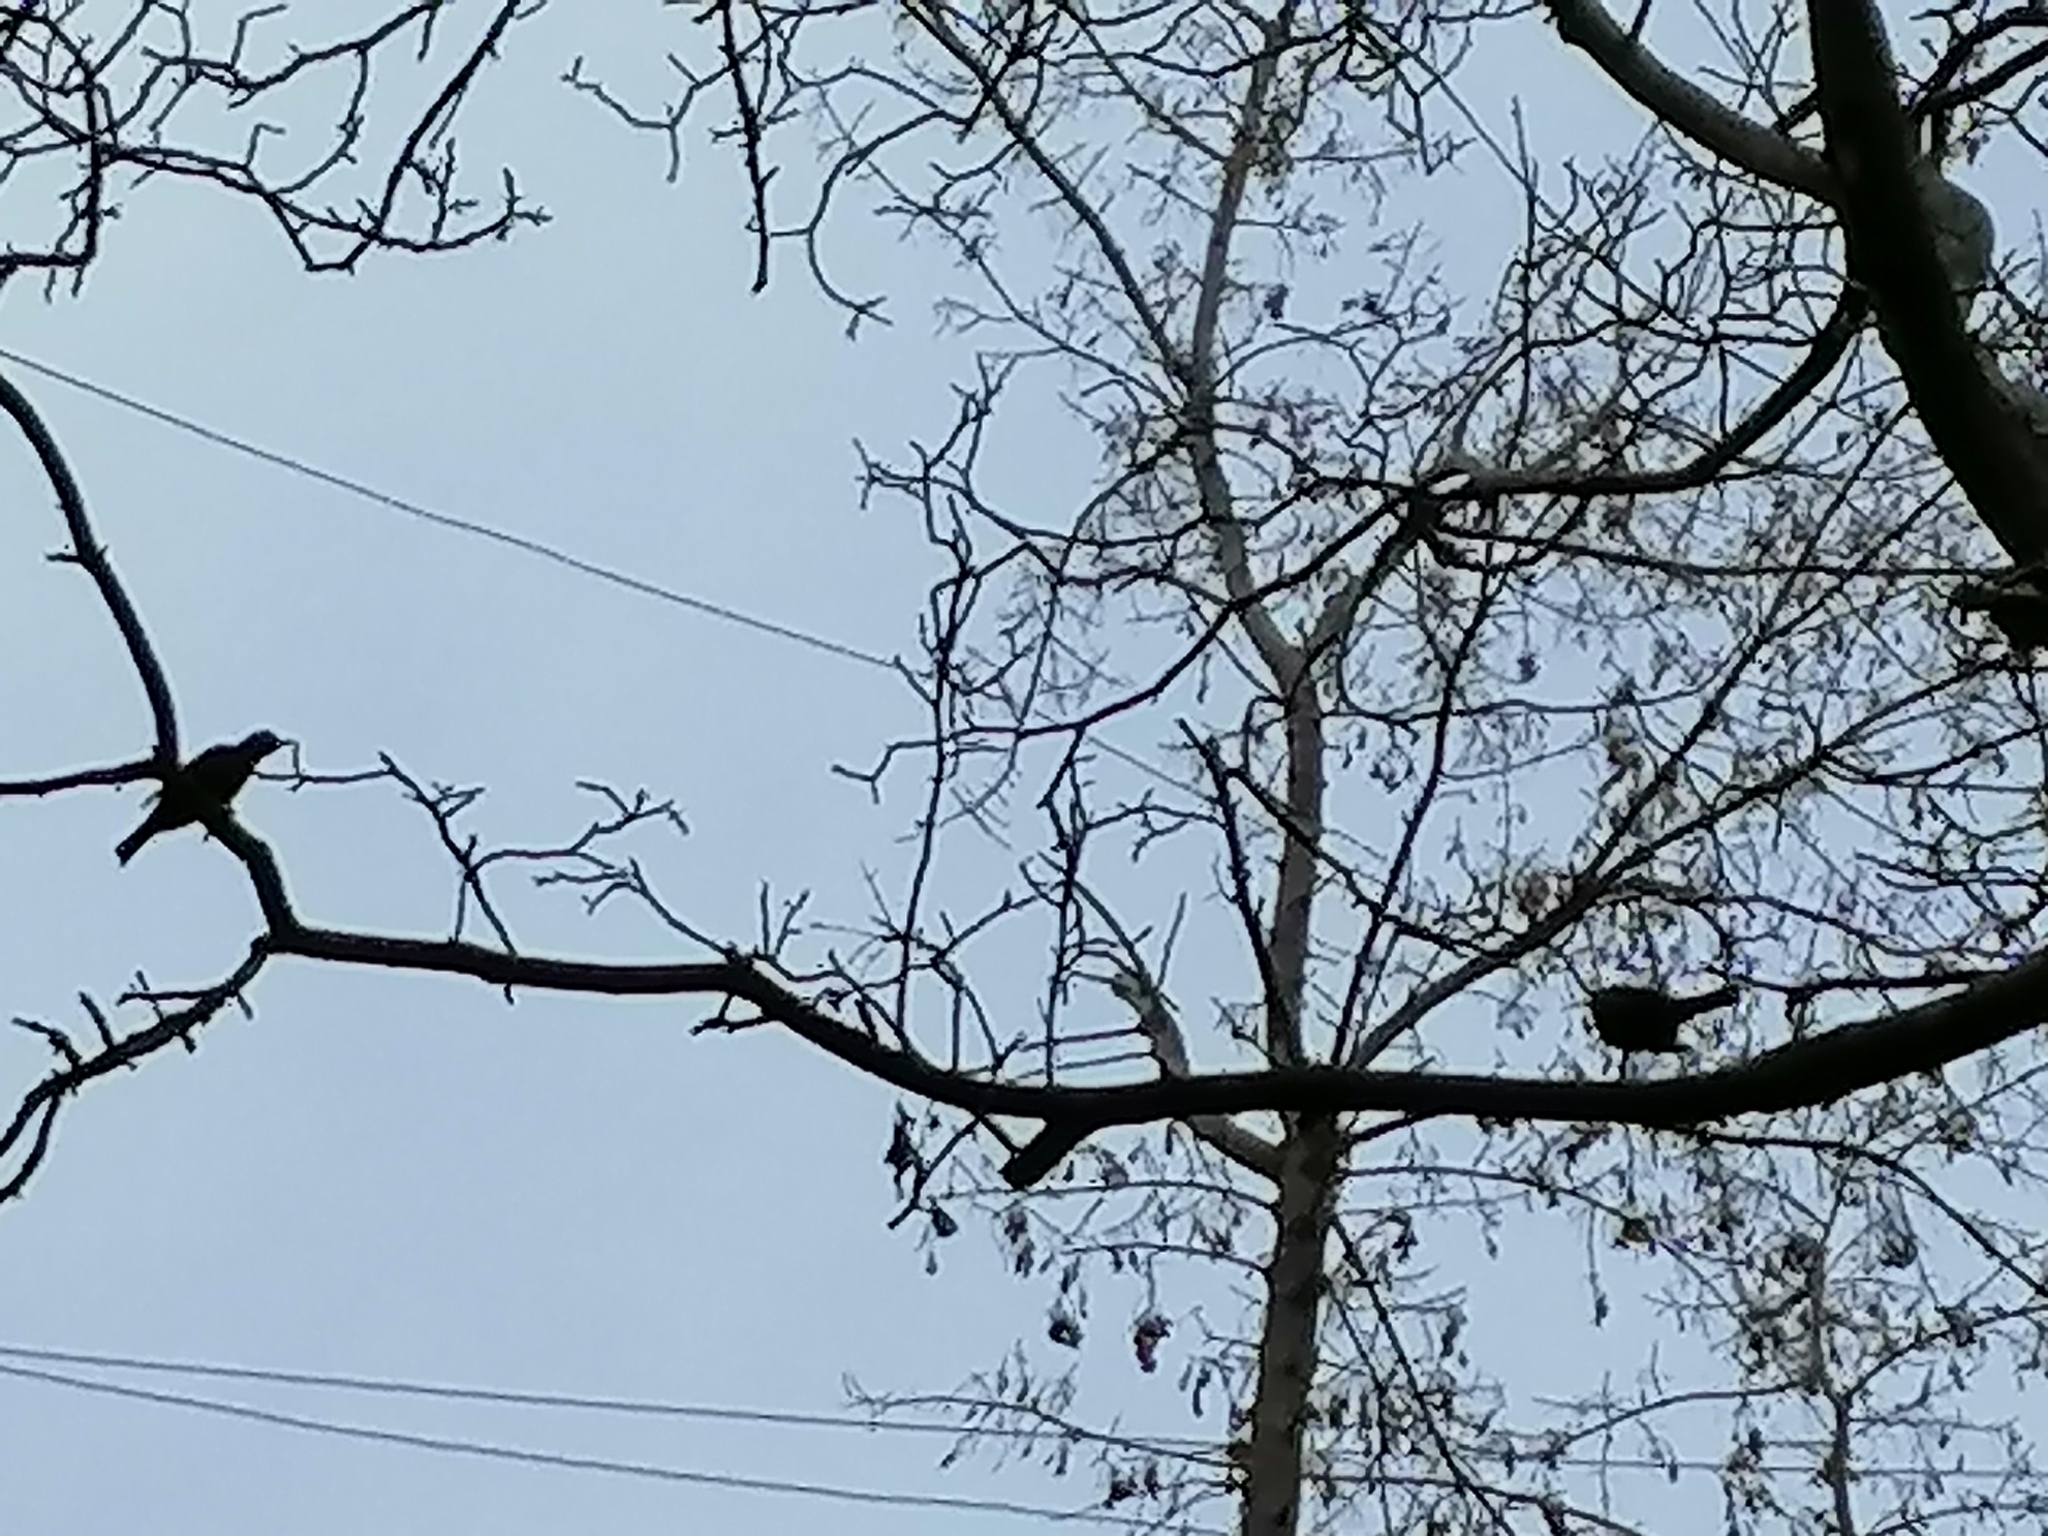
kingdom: Animalia
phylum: Chordata
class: Aves
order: Passeriformes
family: Turdidae
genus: Turdus
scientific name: Turdus merula
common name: Common blackbird
